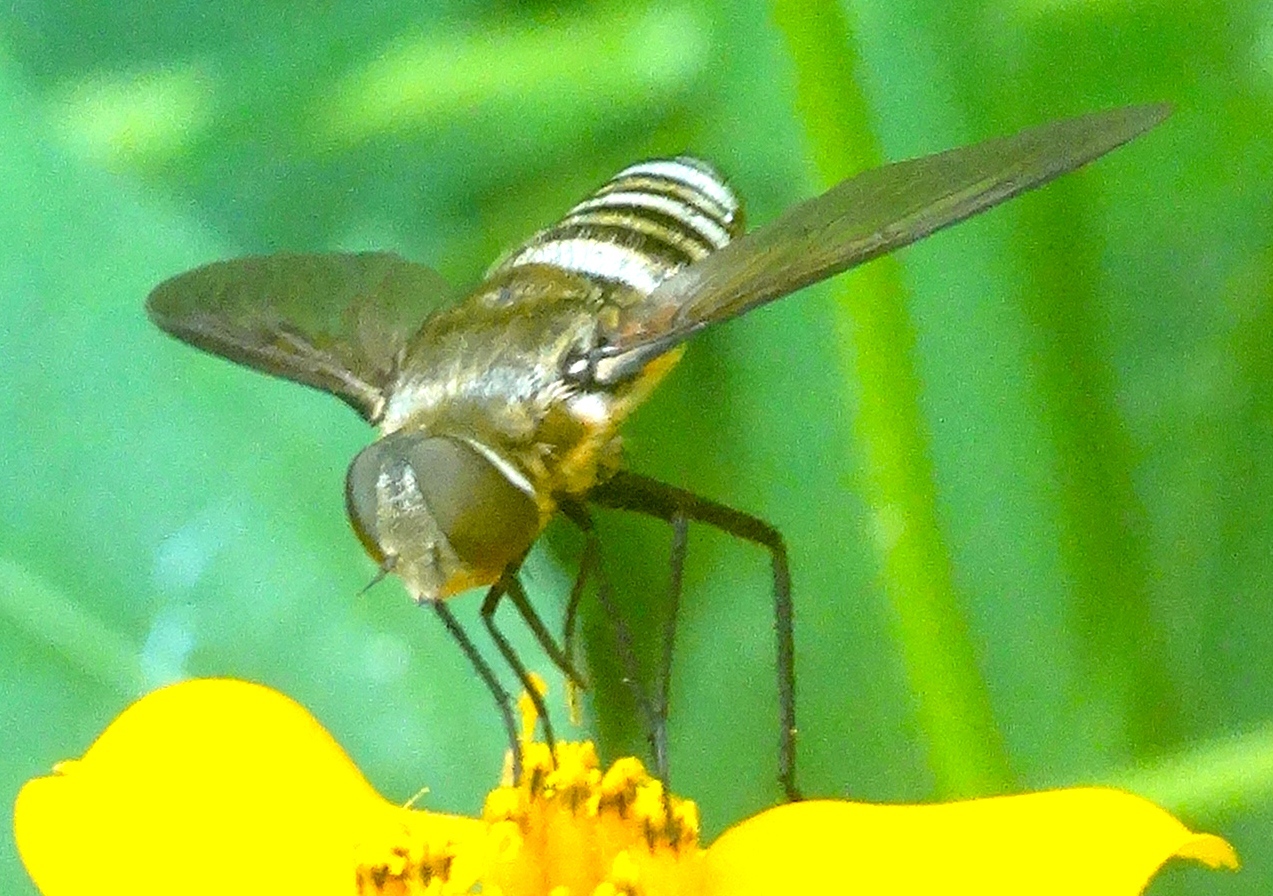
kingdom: Animalia
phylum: Arthropoda
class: Insecta
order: Diptera
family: Bombyliidae
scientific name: Bombyliidae
